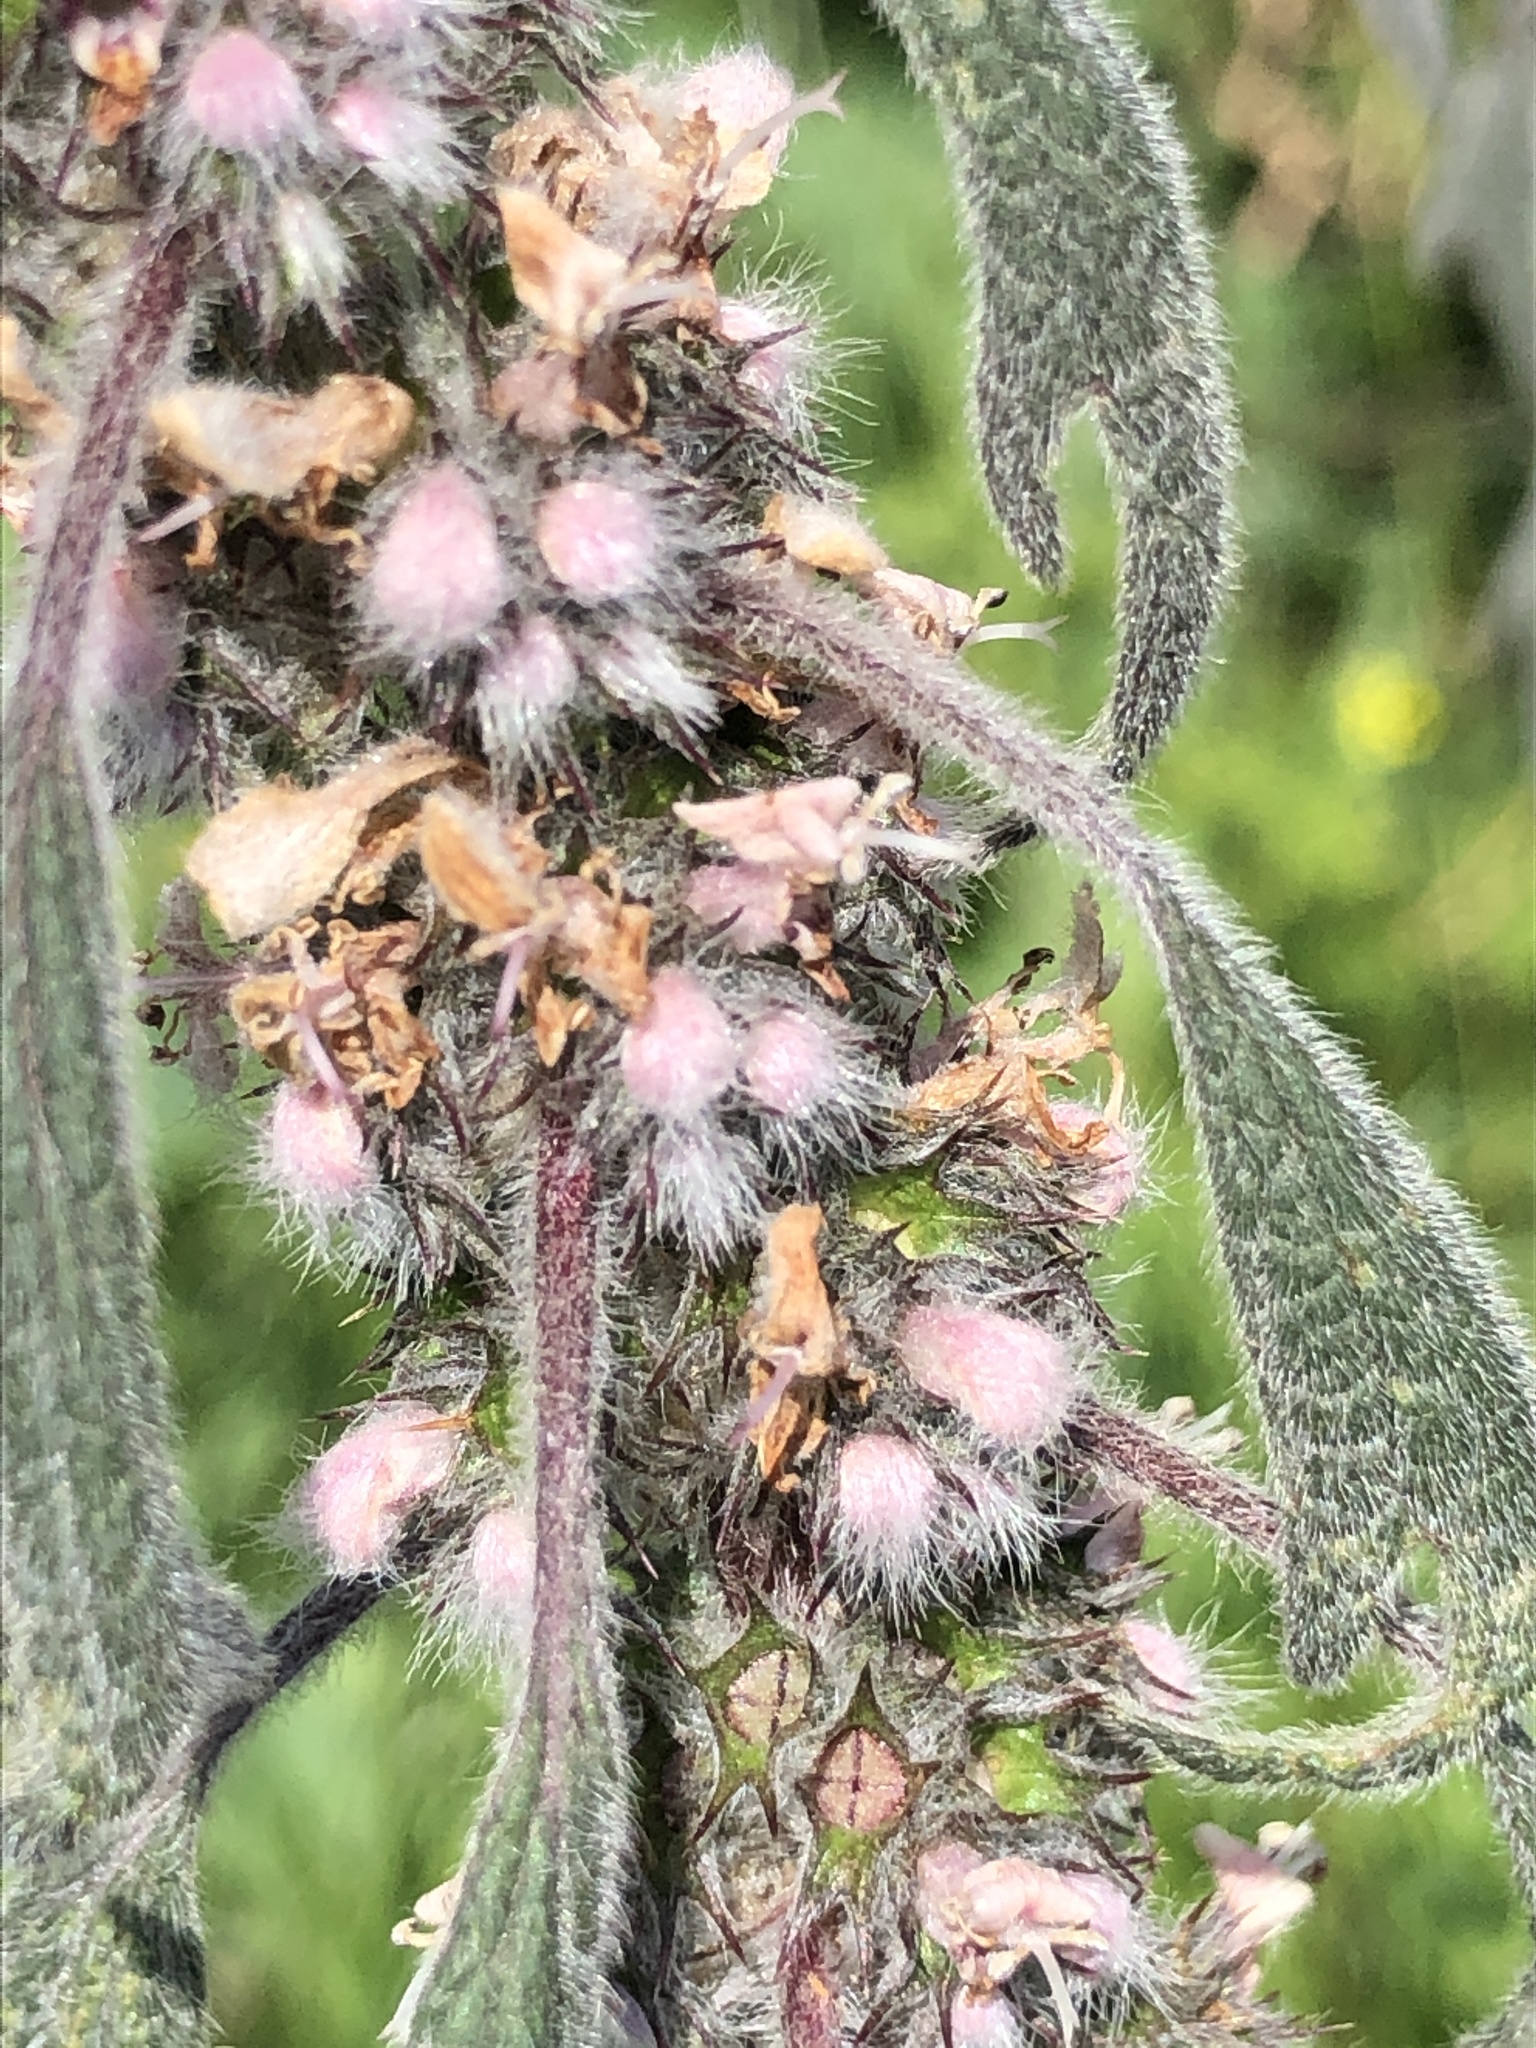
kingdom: Plantae
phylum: Tracheophyta
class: Magnoliopsida
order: Lamiales
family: Lamiaceae
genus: Leonurus
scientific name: Leonurus quinquelobatus
